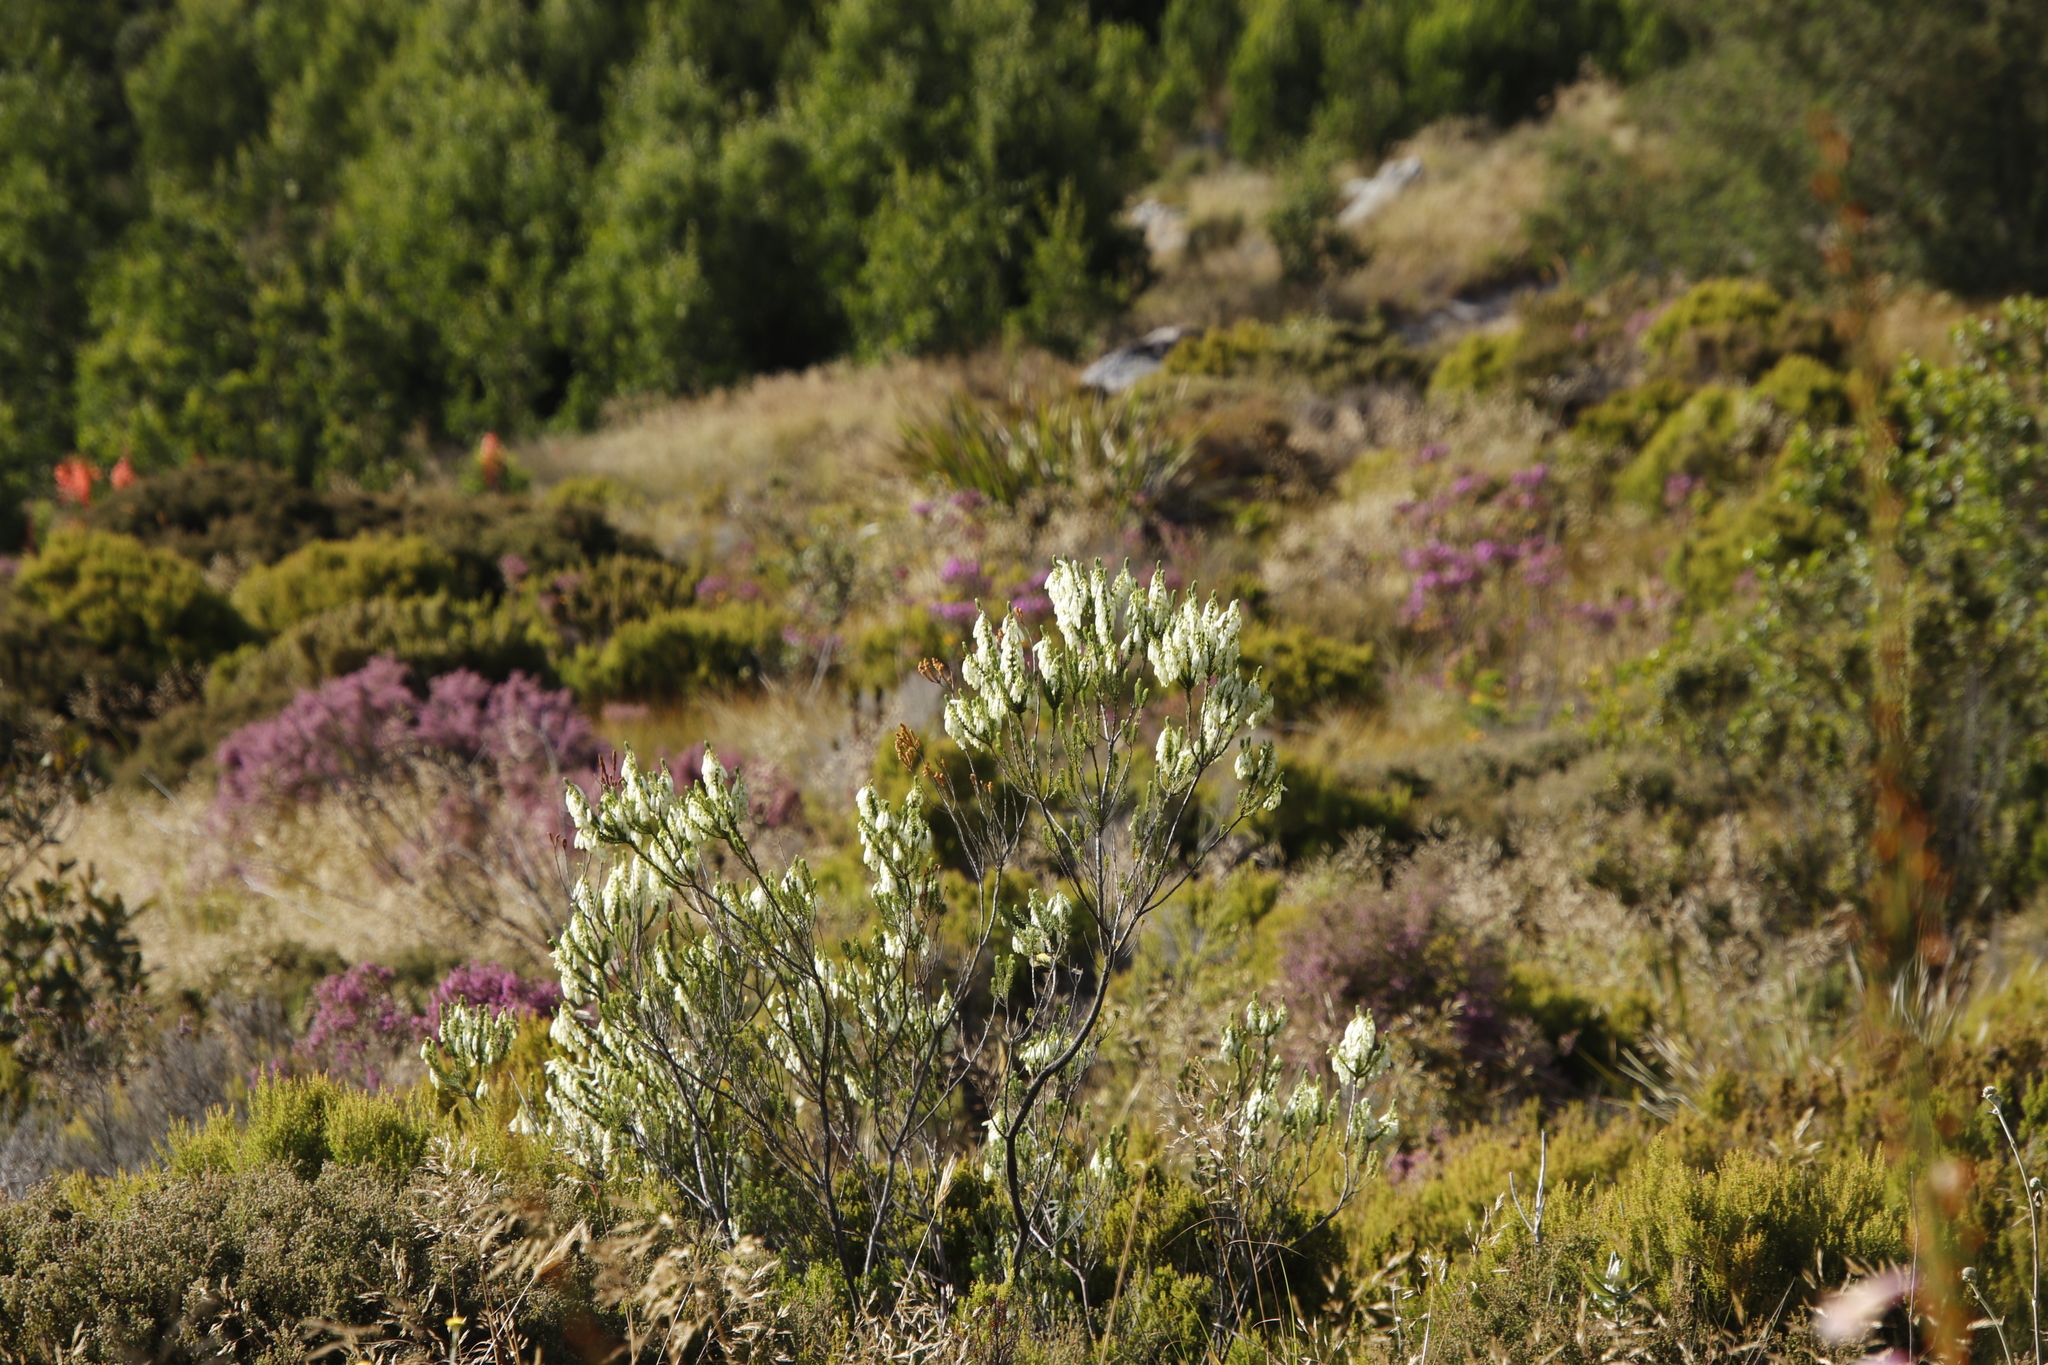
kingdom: Plantae
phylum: Tracheophyta
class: Magnoliopsida
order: Ericales
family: Ericaceae
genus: Erica
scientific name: Erica mammosa
